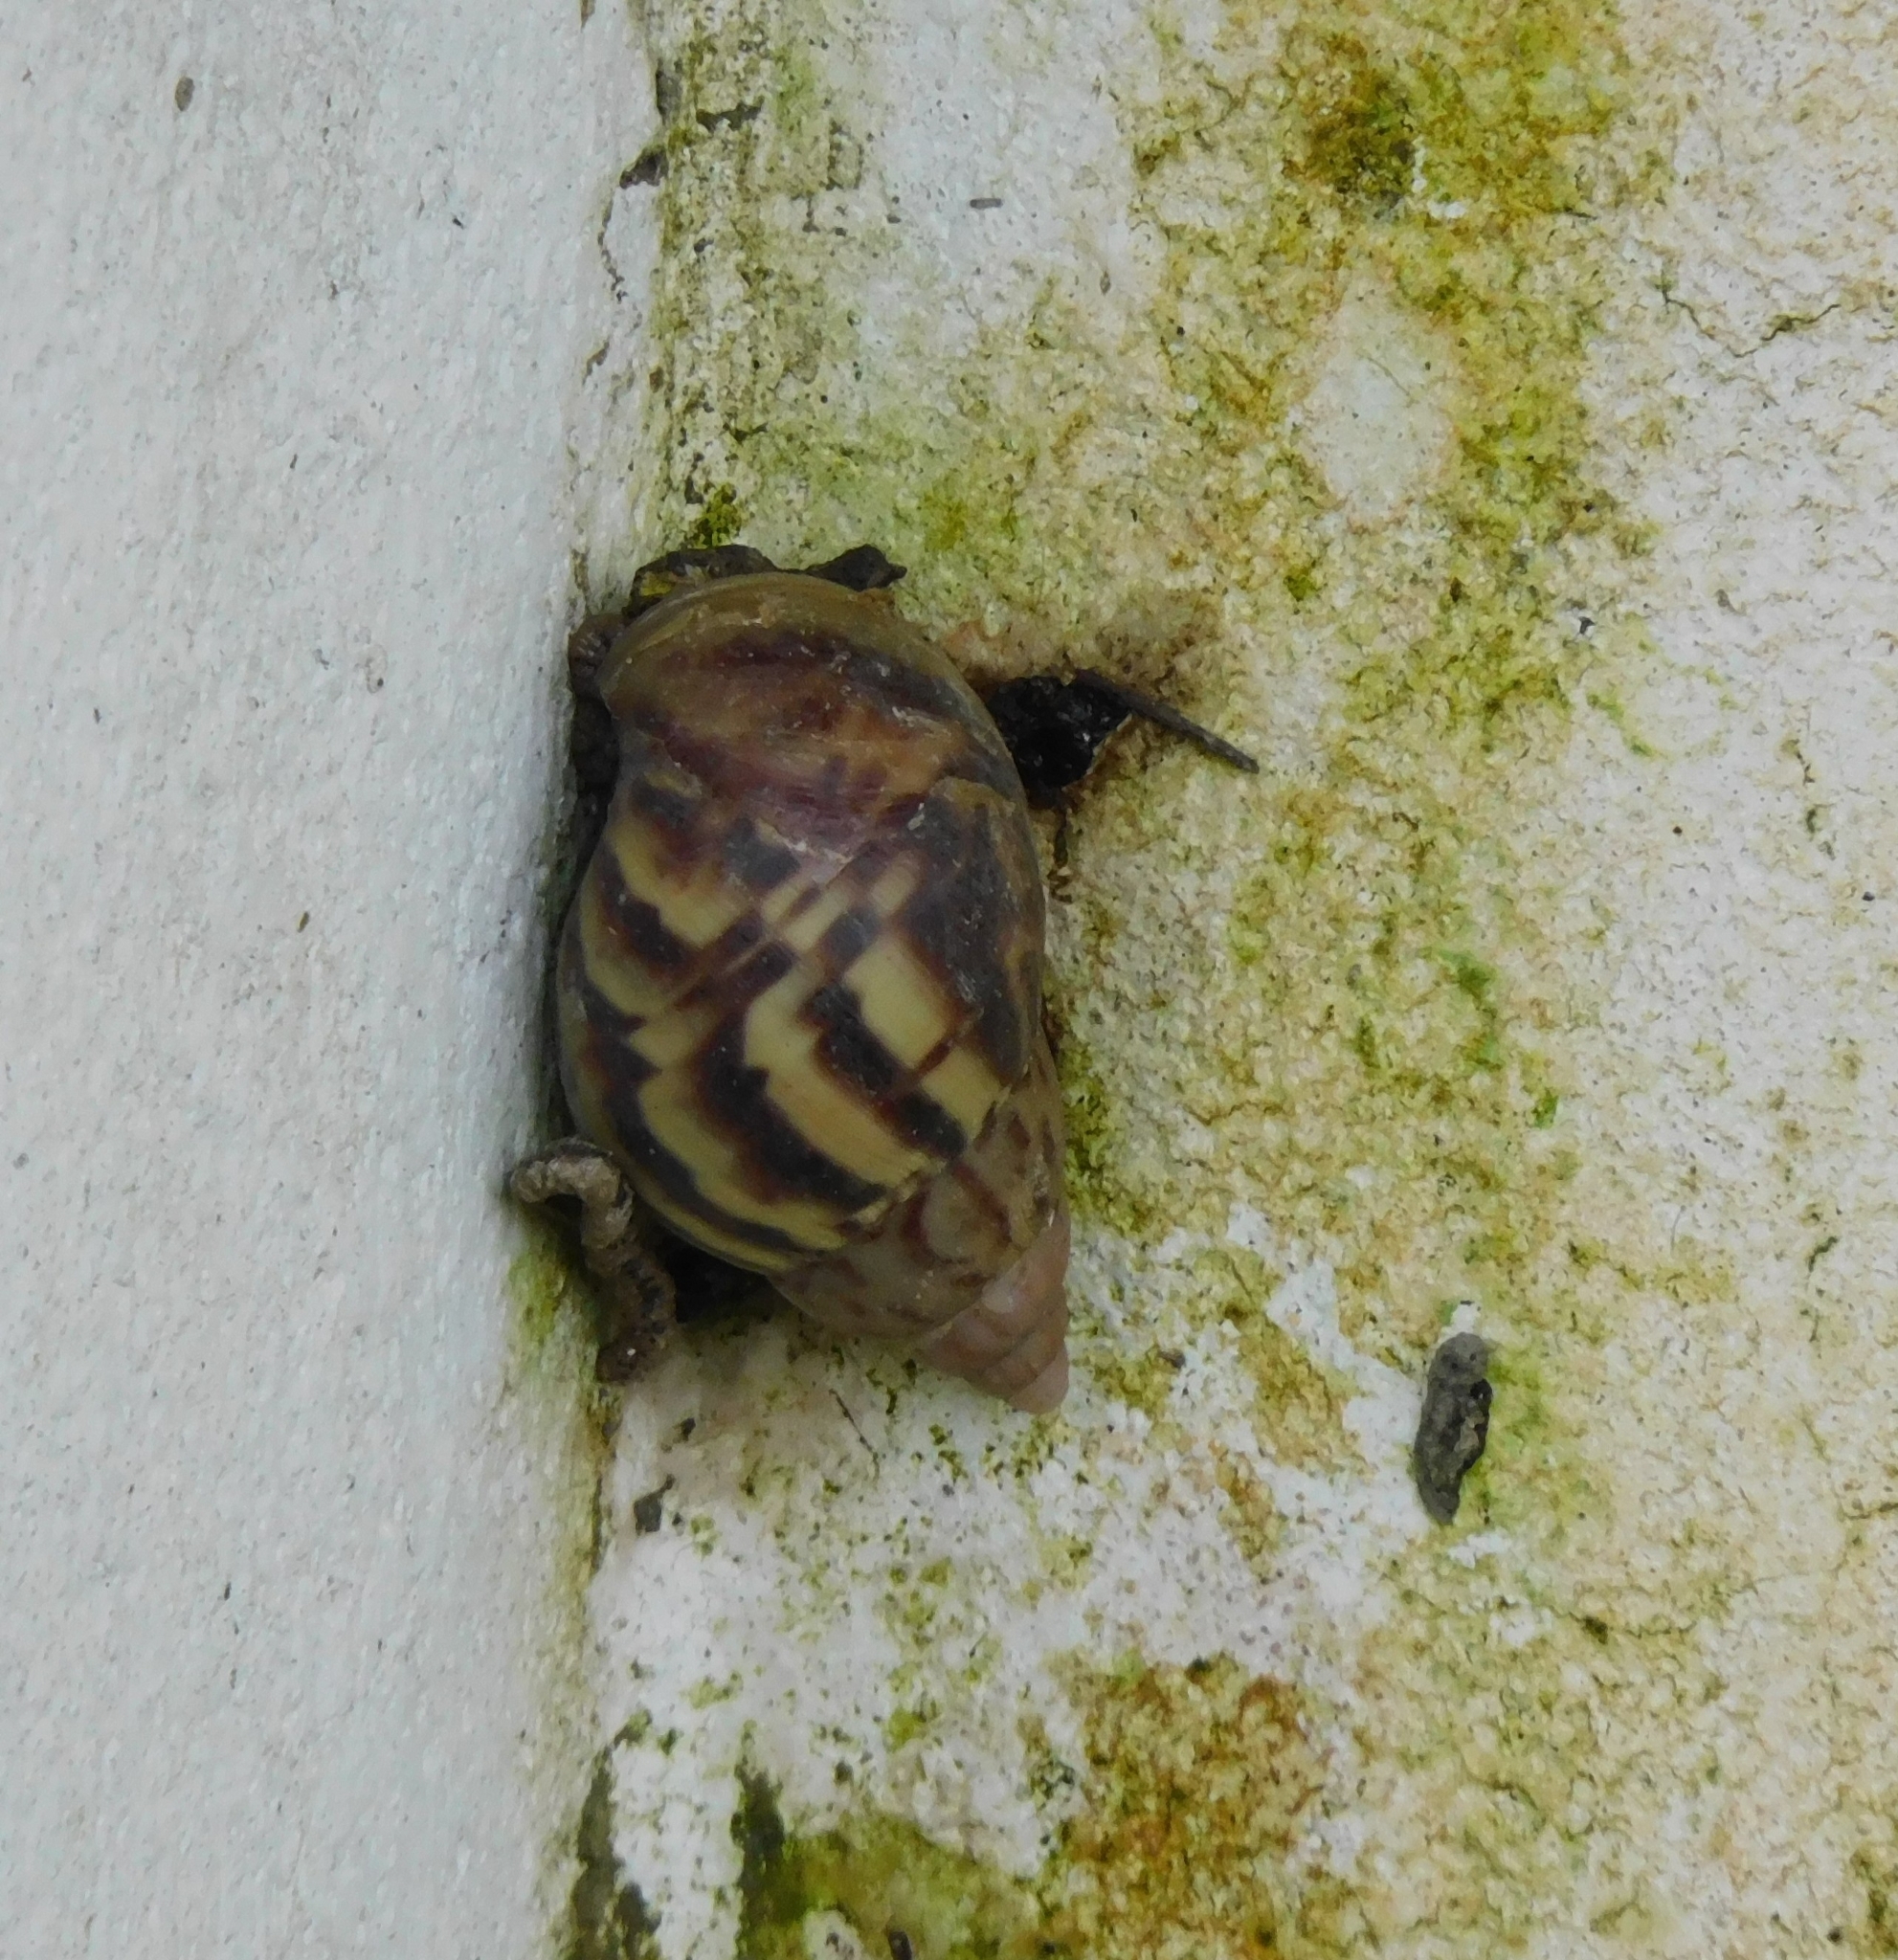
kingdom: Animalia
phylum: Mollusca
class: Gastropoda
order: Stylommatophora
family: Achatinidae
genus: Lissachatina
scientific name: Lissachatina fulica
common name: Giant african snail
